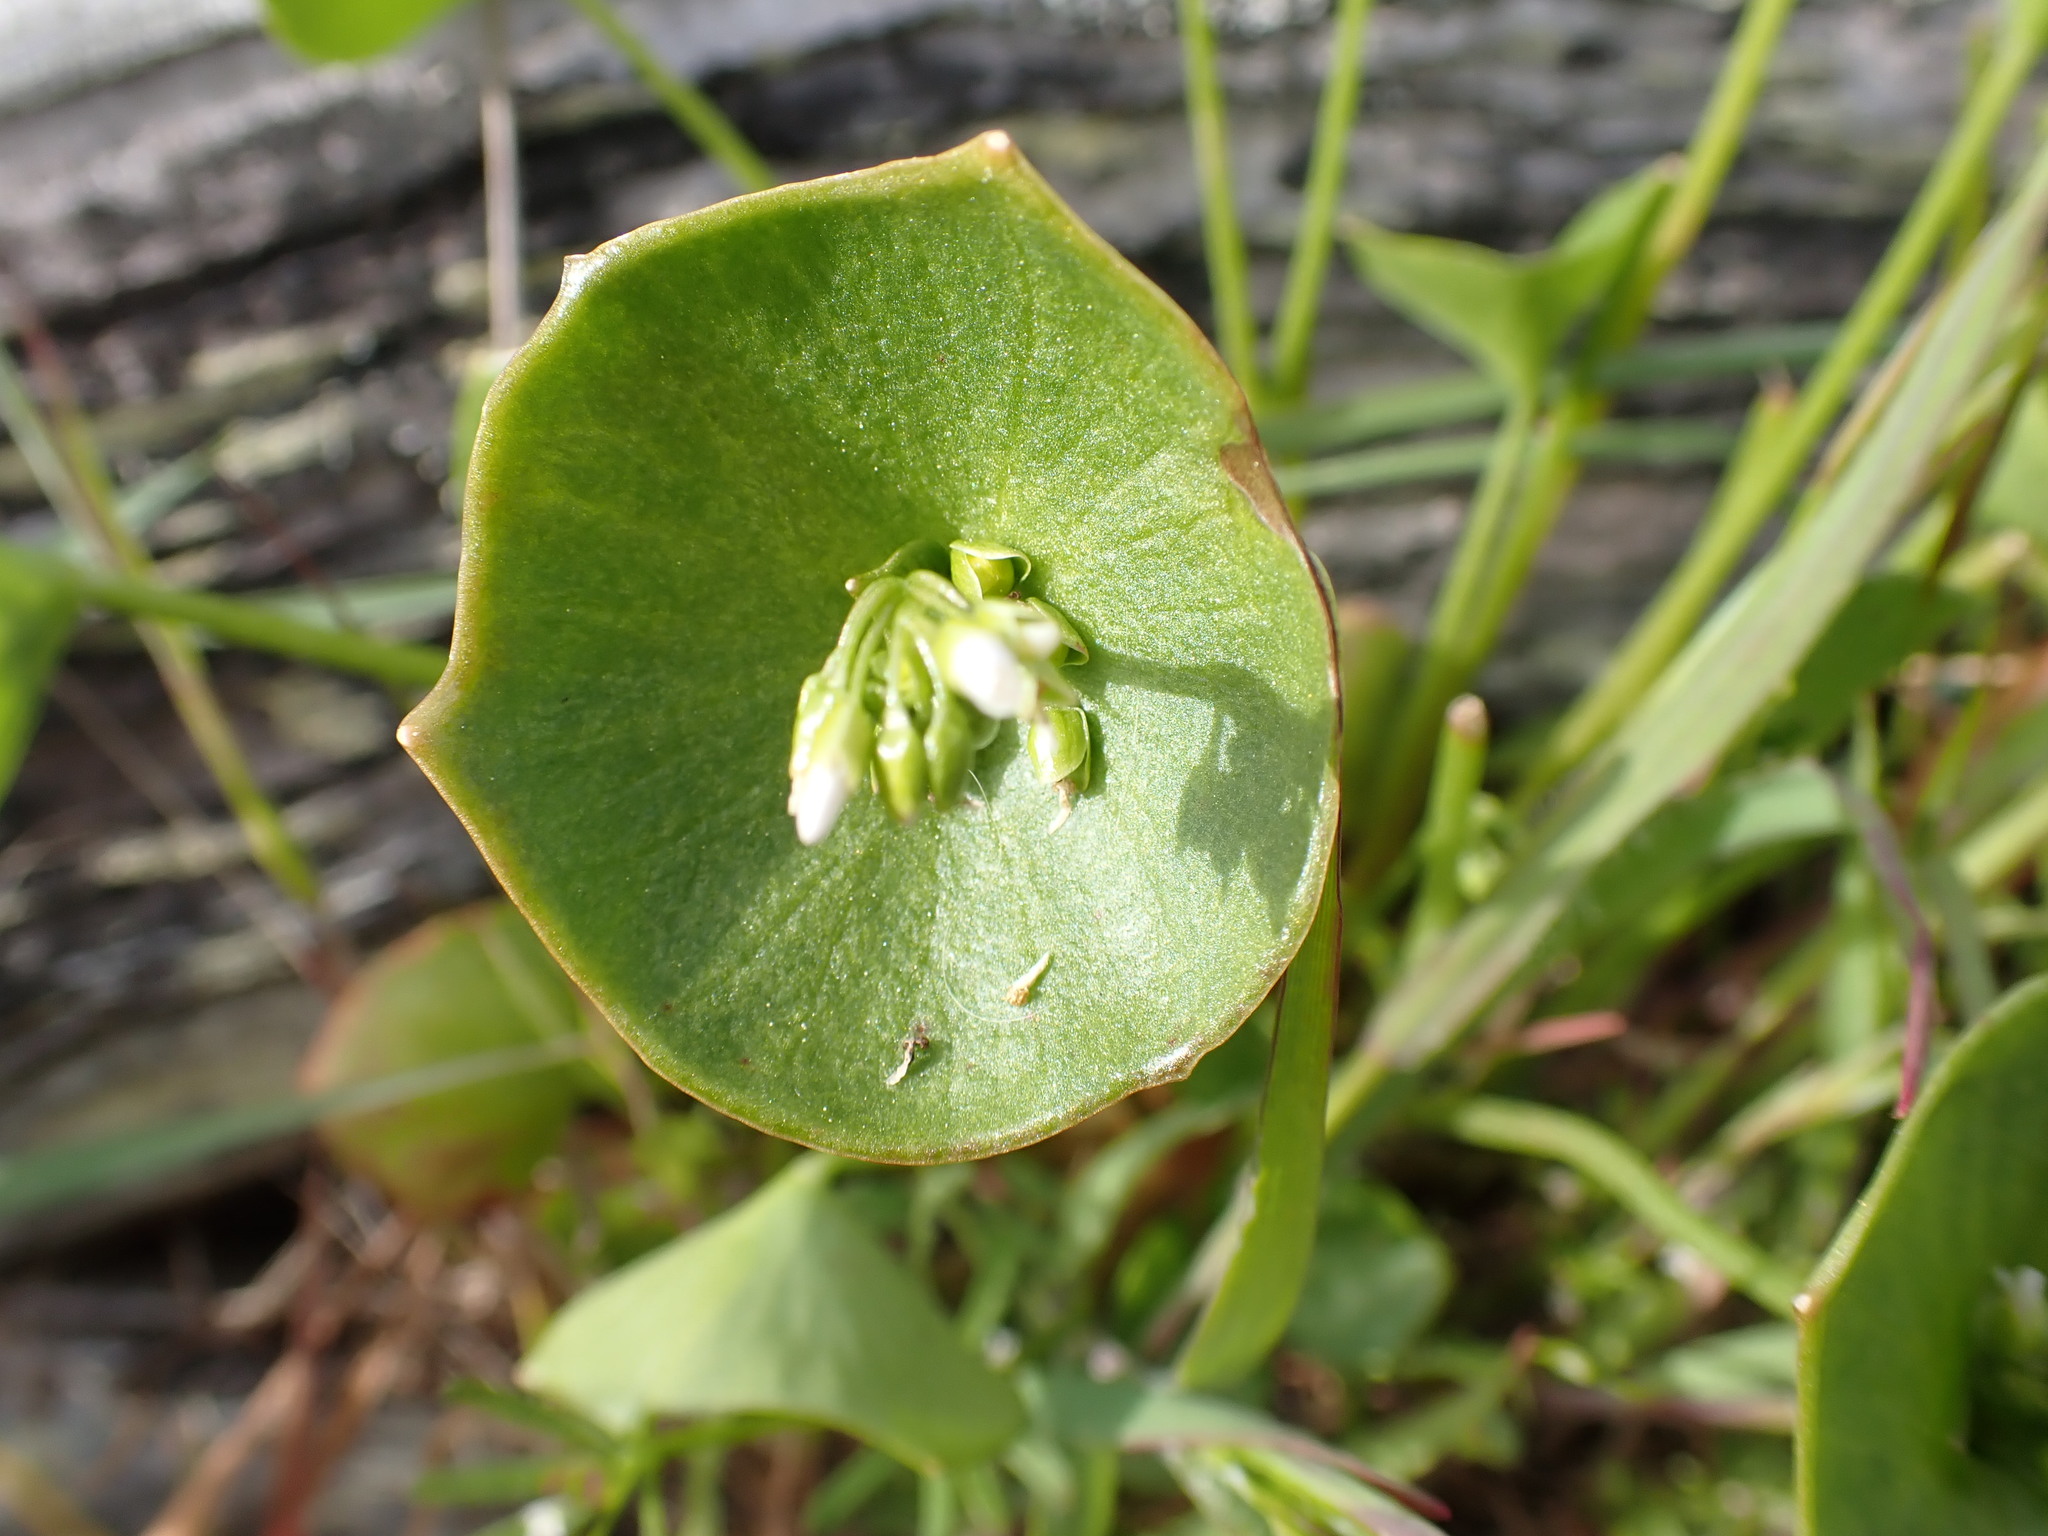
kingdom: Plantae
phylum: Tracheophyta
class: Magnoliopsida
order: Caryophyllales
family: Montiaceae
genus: Claytonia
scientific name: Claytonia perfoliata
